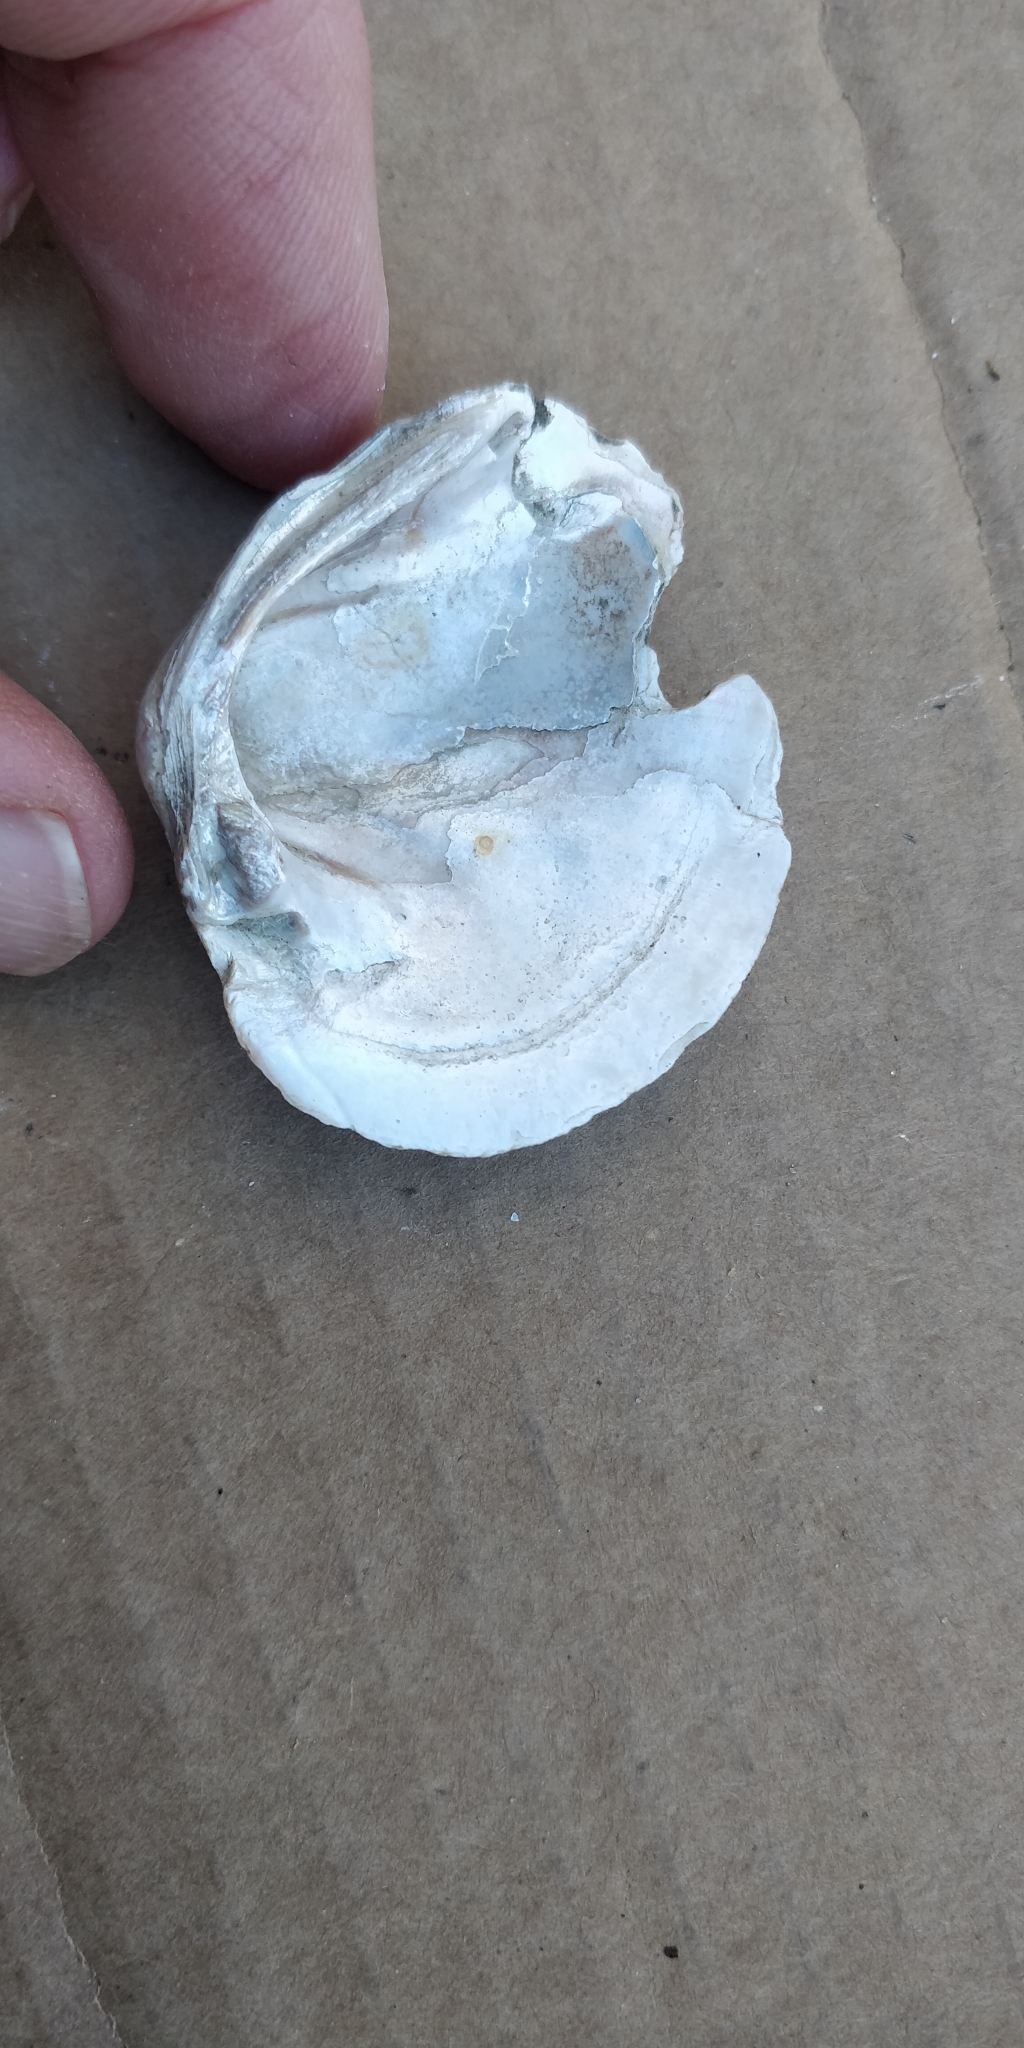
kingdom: Animalia
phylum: Mollusca
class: Bivalvia
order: Unionida
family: Unionidae
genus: Fusconaia
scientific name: Fusconaia flava
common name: Wabash pigtoe
